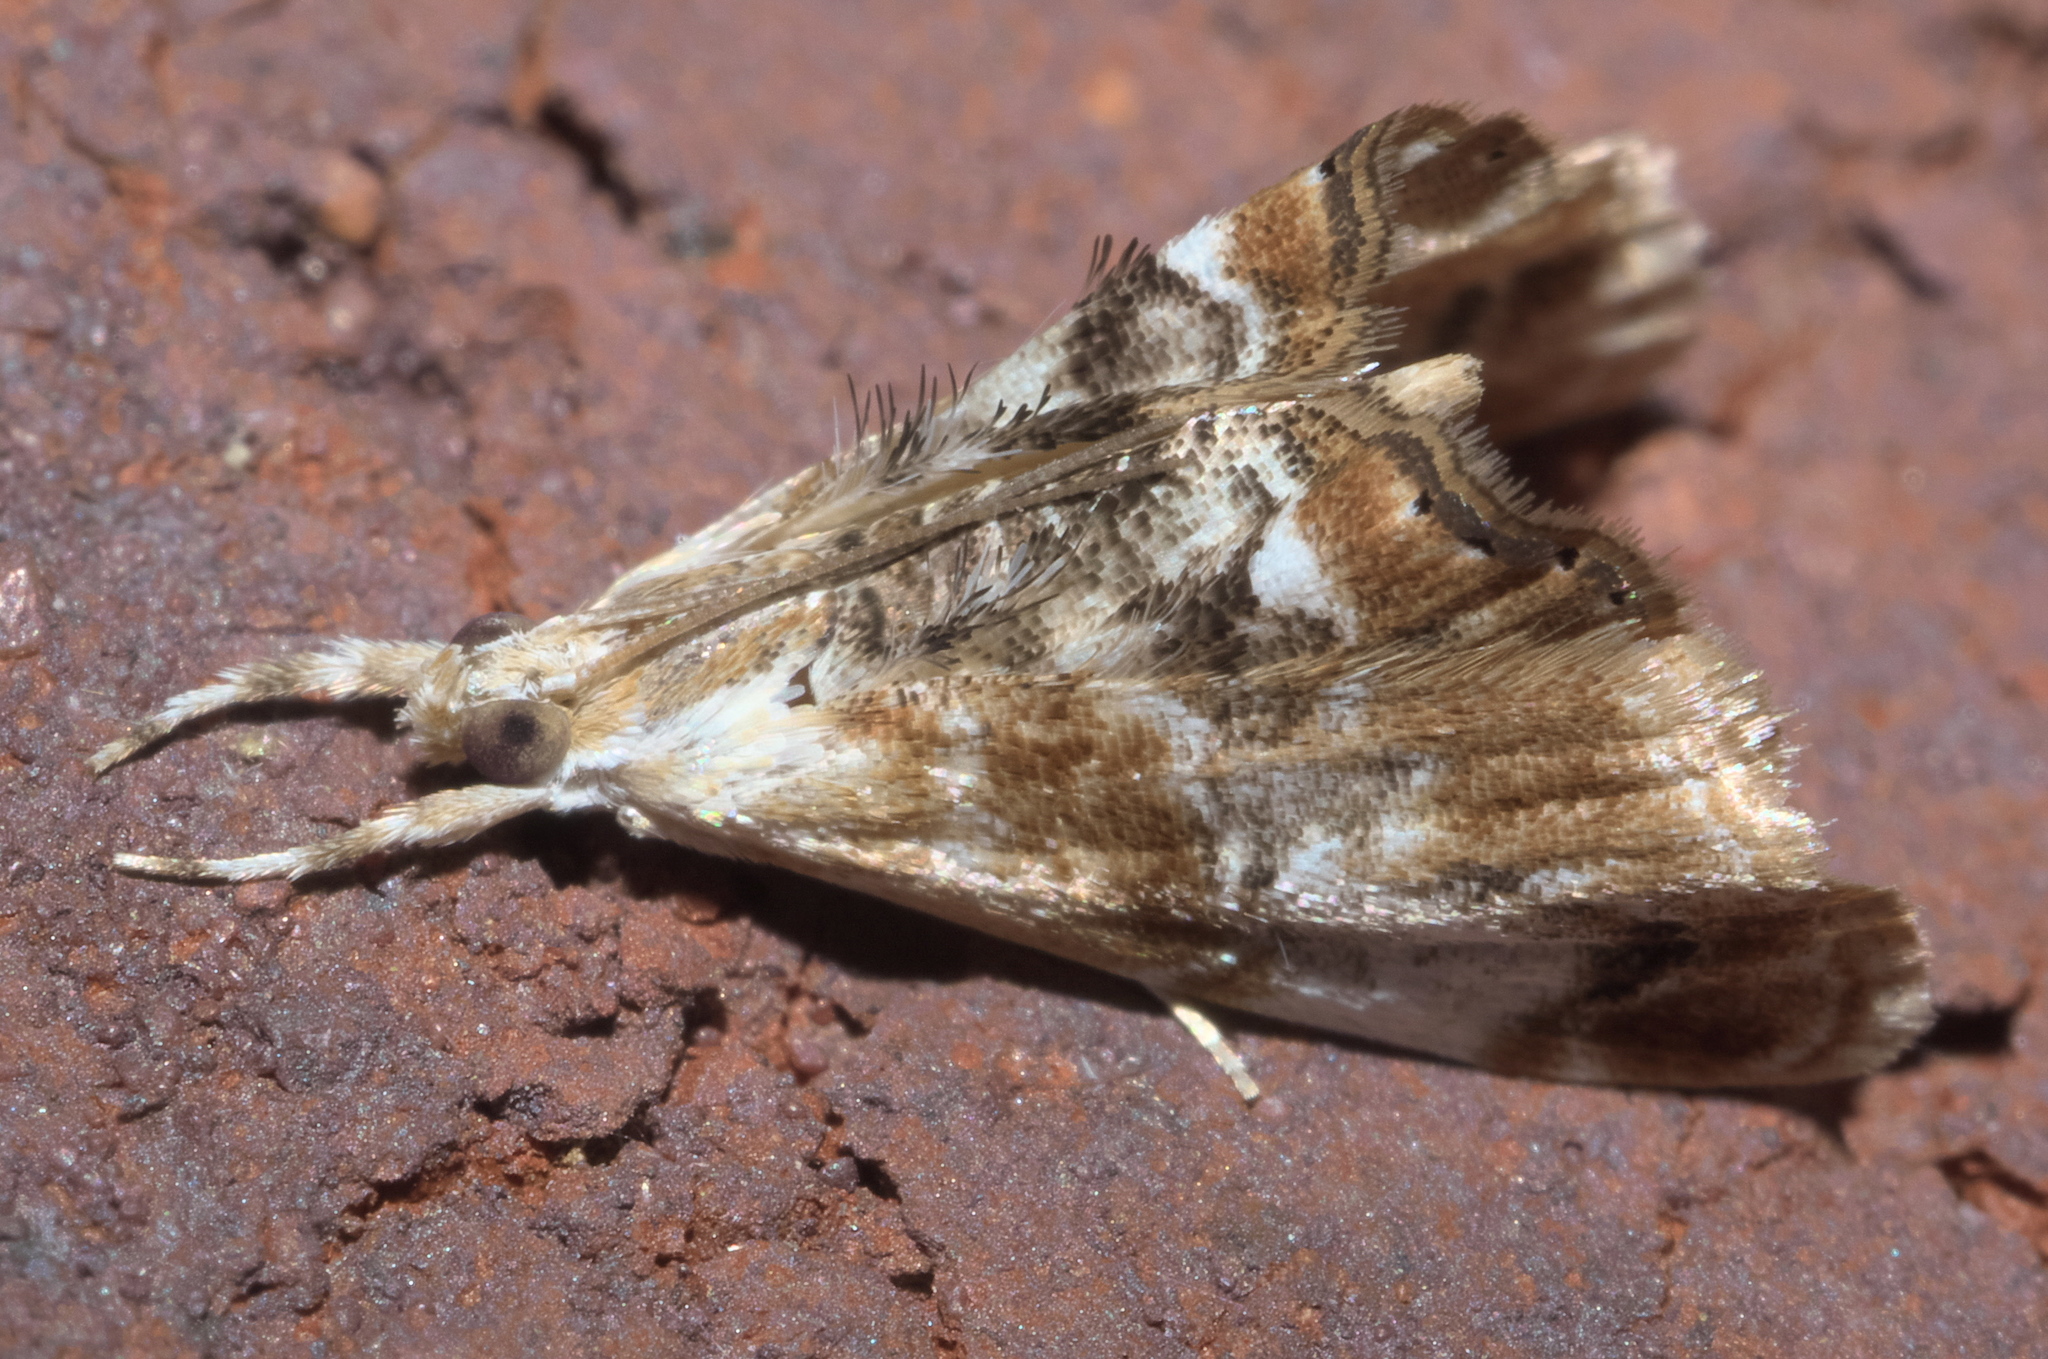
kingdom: Animalia
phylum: Arthropoda
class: Insecta
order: Lepidoptera
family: Crambidae
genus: Dicymolomia
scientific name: Dicymolomia julianalis
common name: Julia's dicymolomia moth
